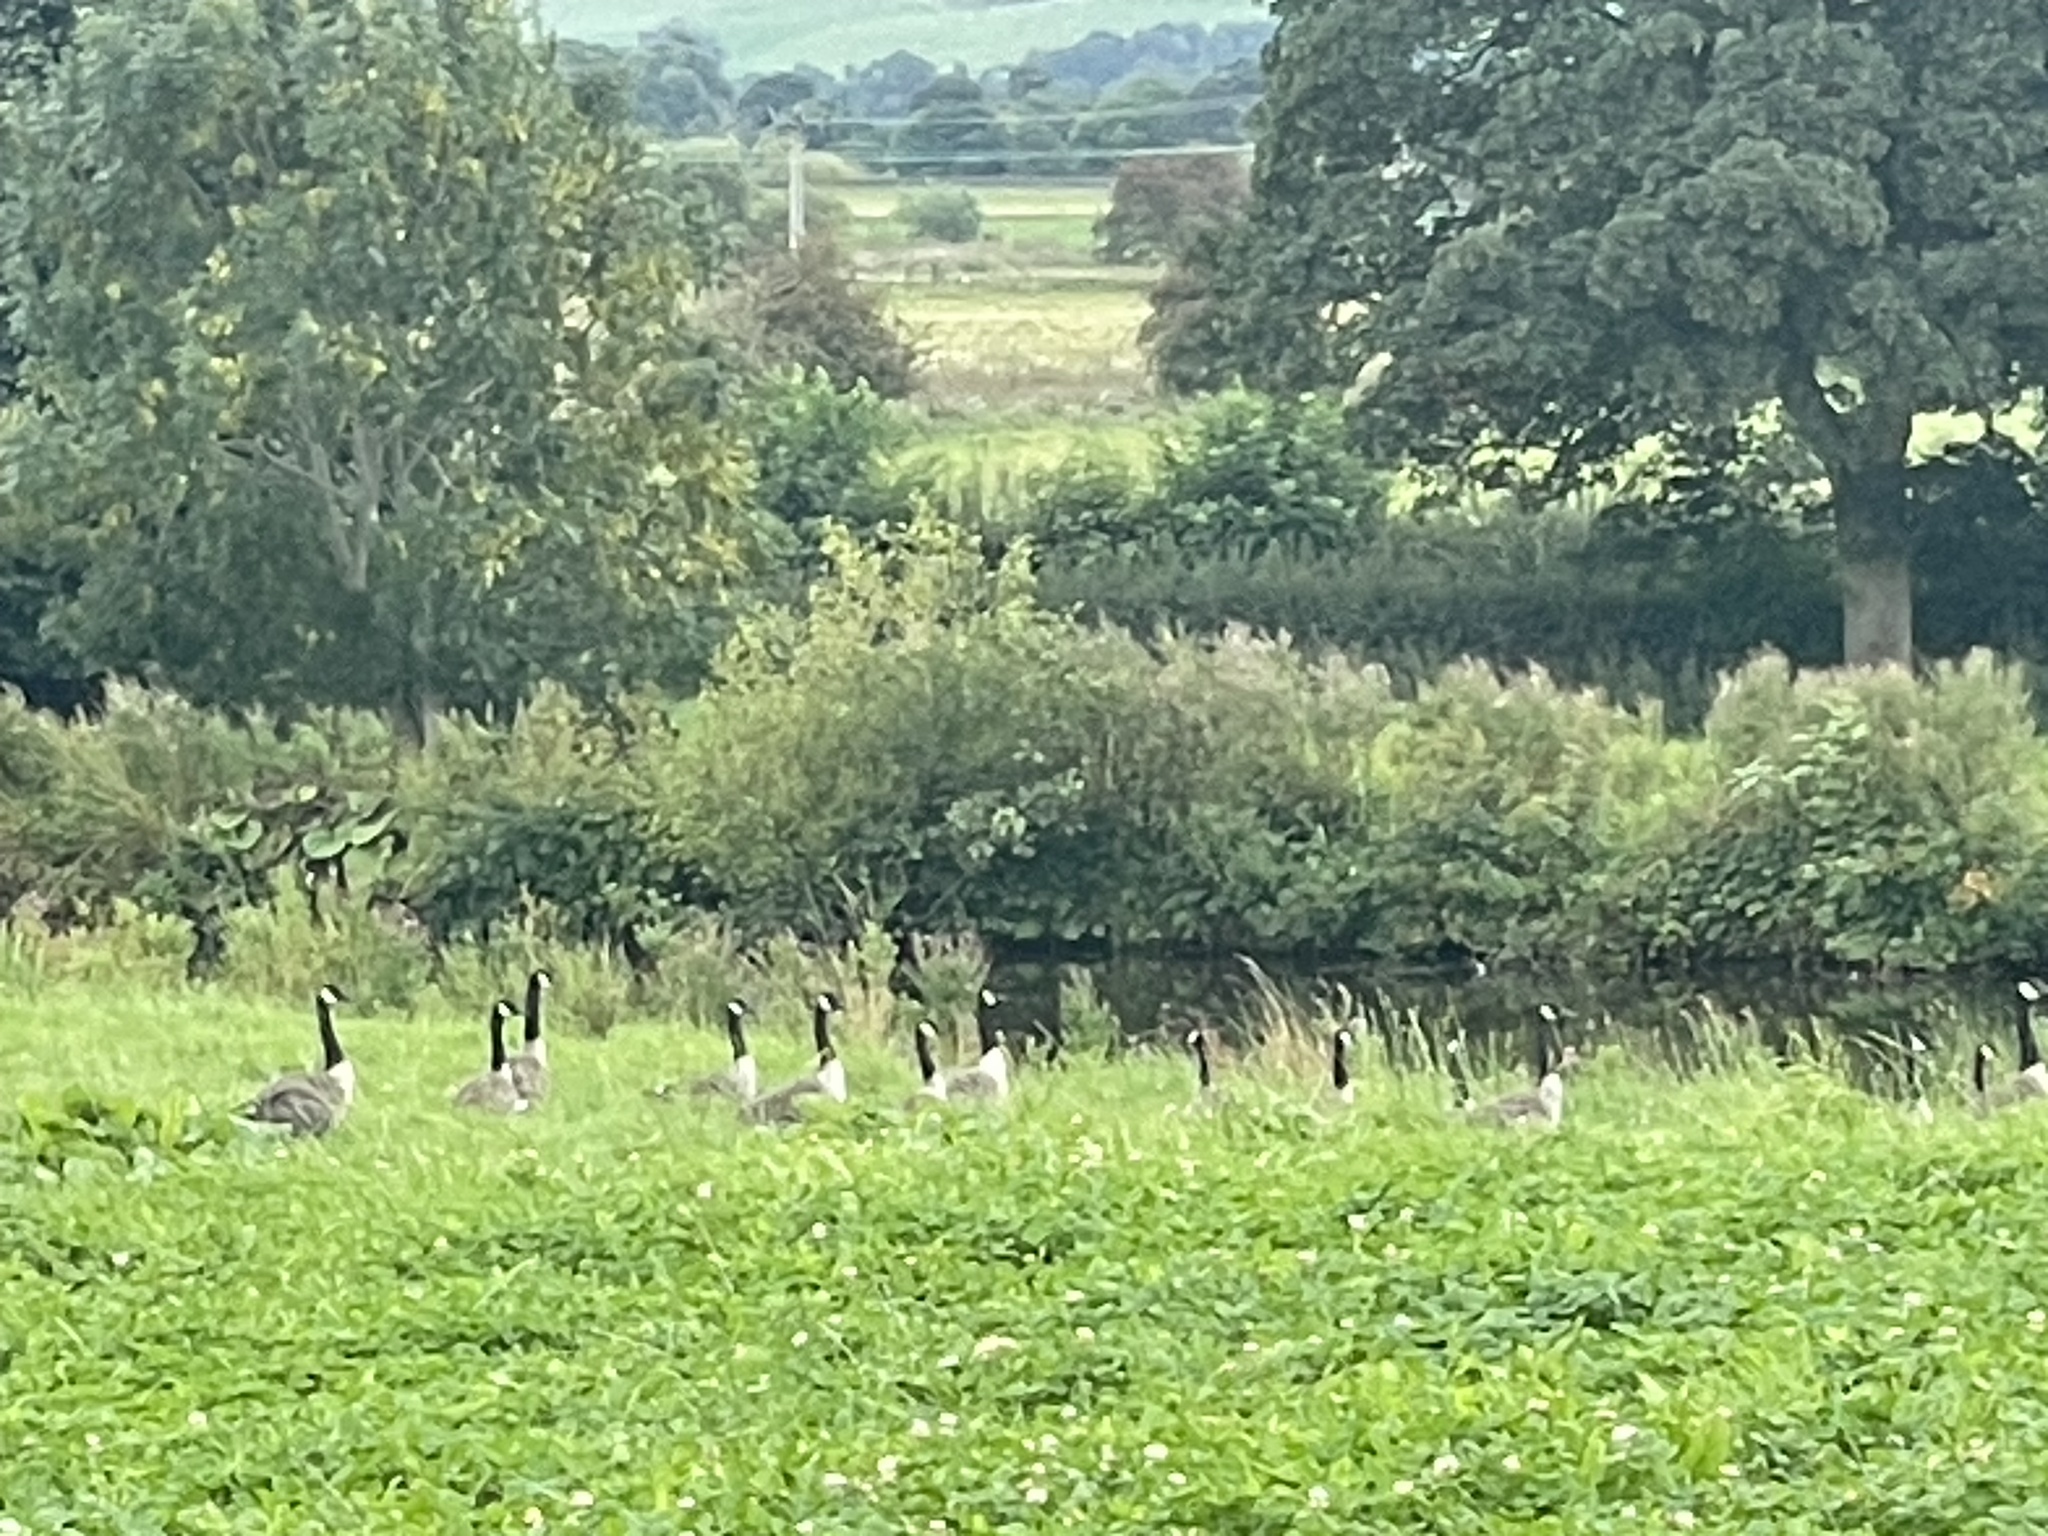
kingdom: Animalia
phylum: Chordata
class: Aves
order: Anseriformes
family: Anatidae
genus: Branta
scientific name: Branta canadensis
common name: Canada goose
